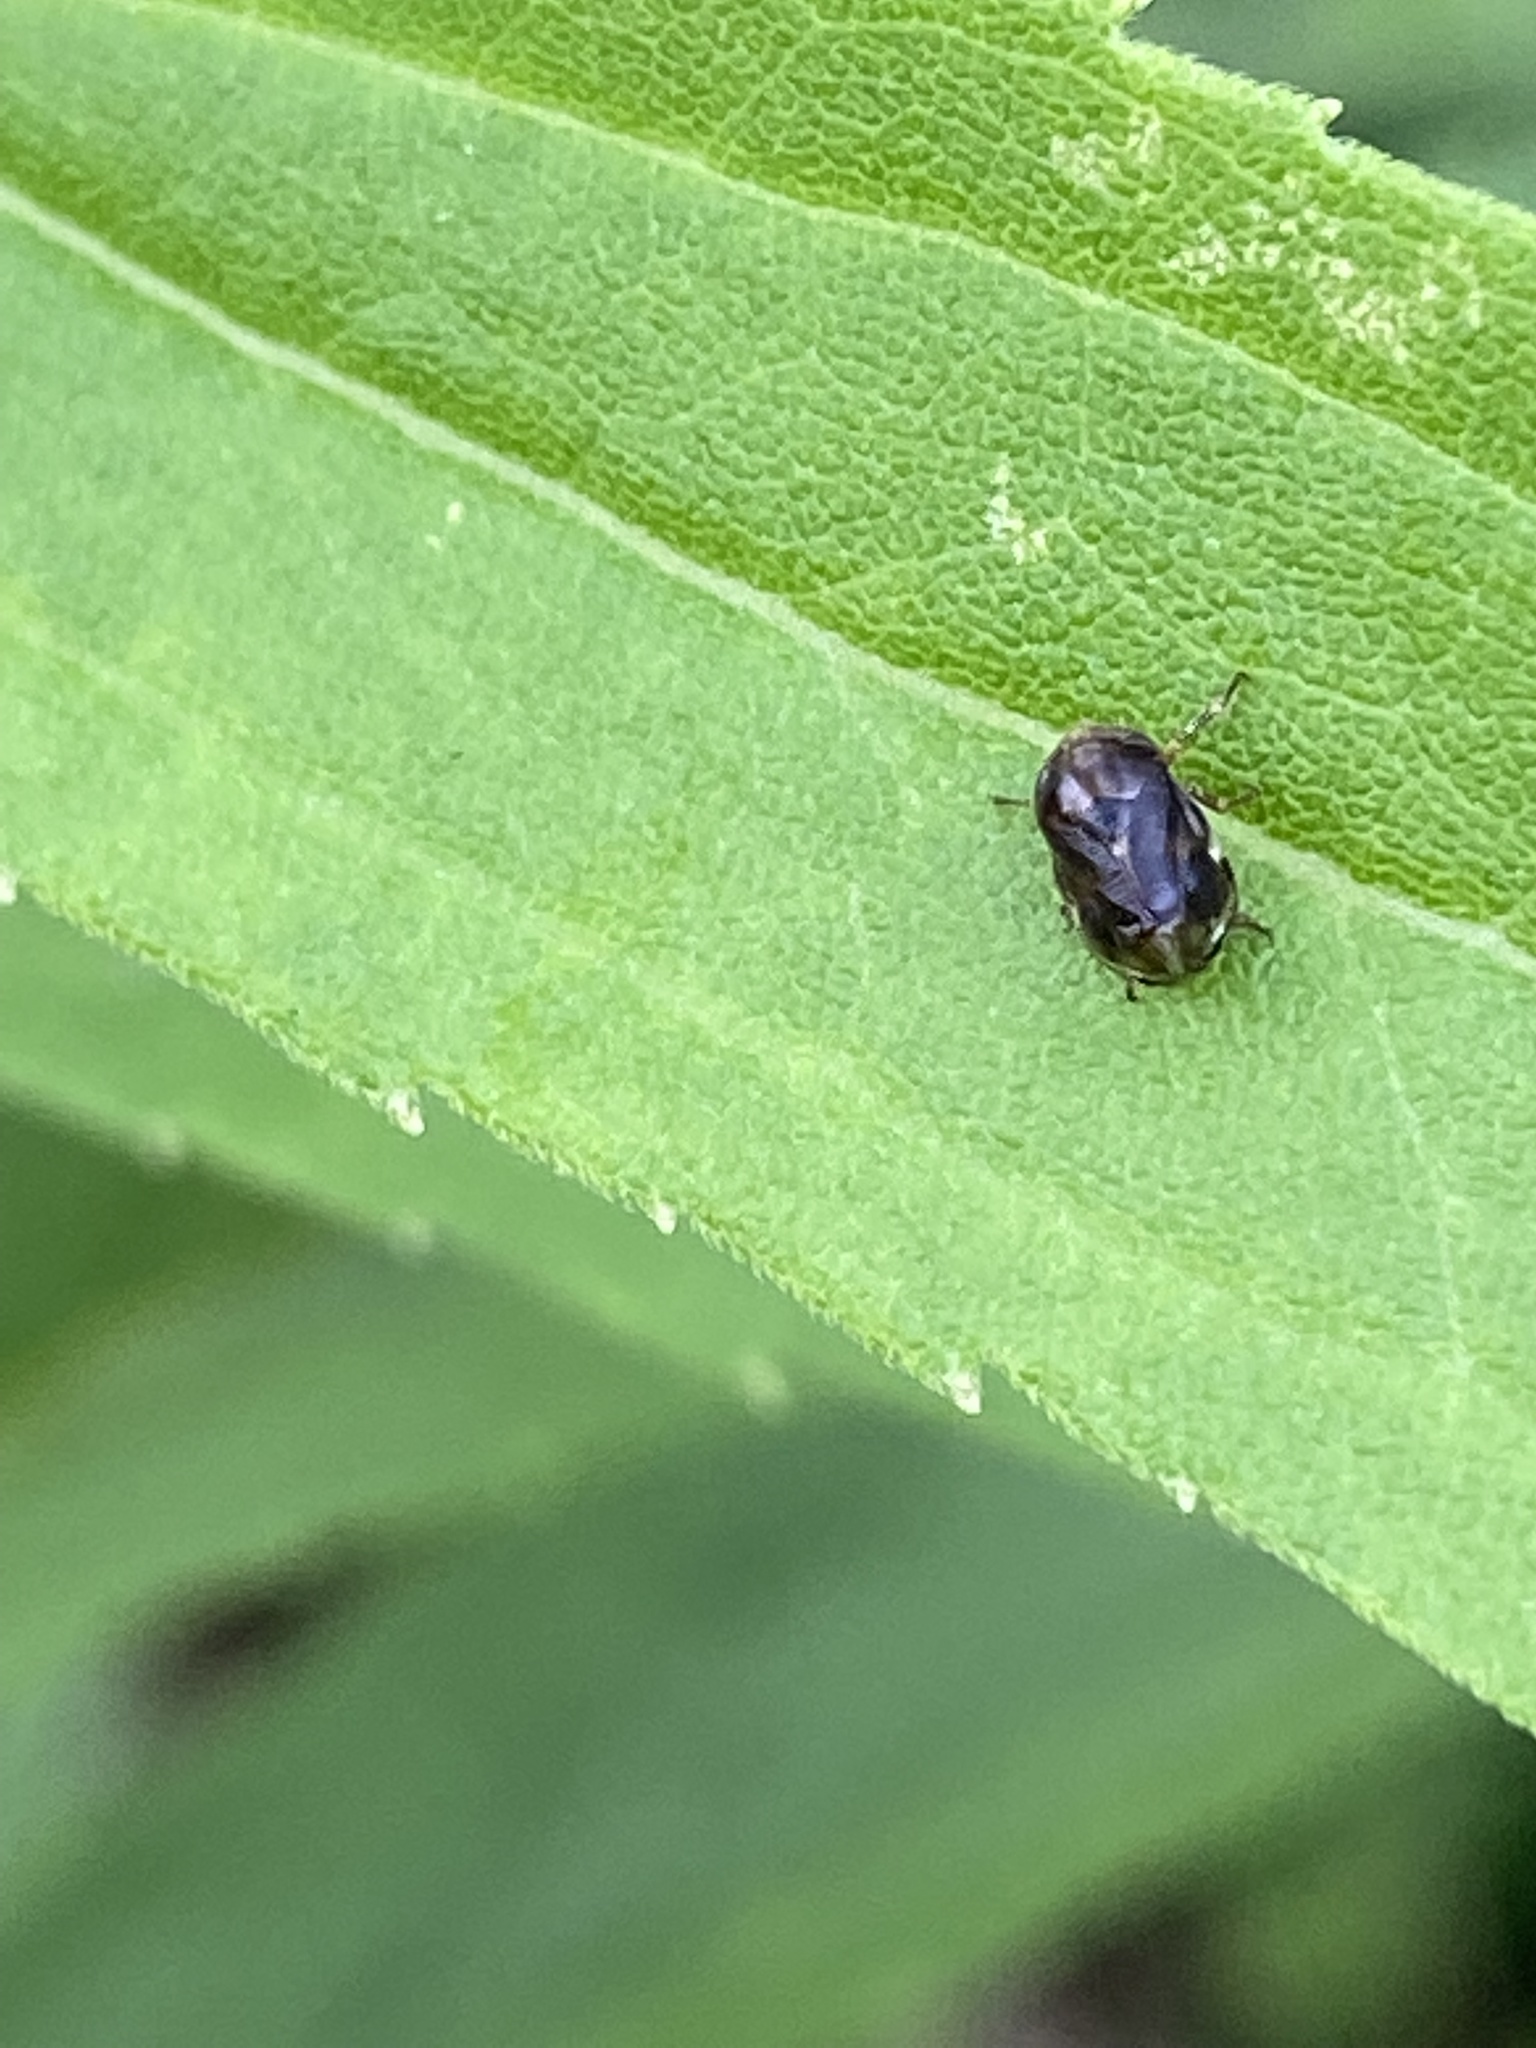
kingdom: Animalia
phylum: Arthropoda
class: Insecta
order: Hemiptera
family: Clastopteridae
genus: Clastoptera
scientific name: Clastoptera xanthocephala
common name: Sunflower spittlebug
